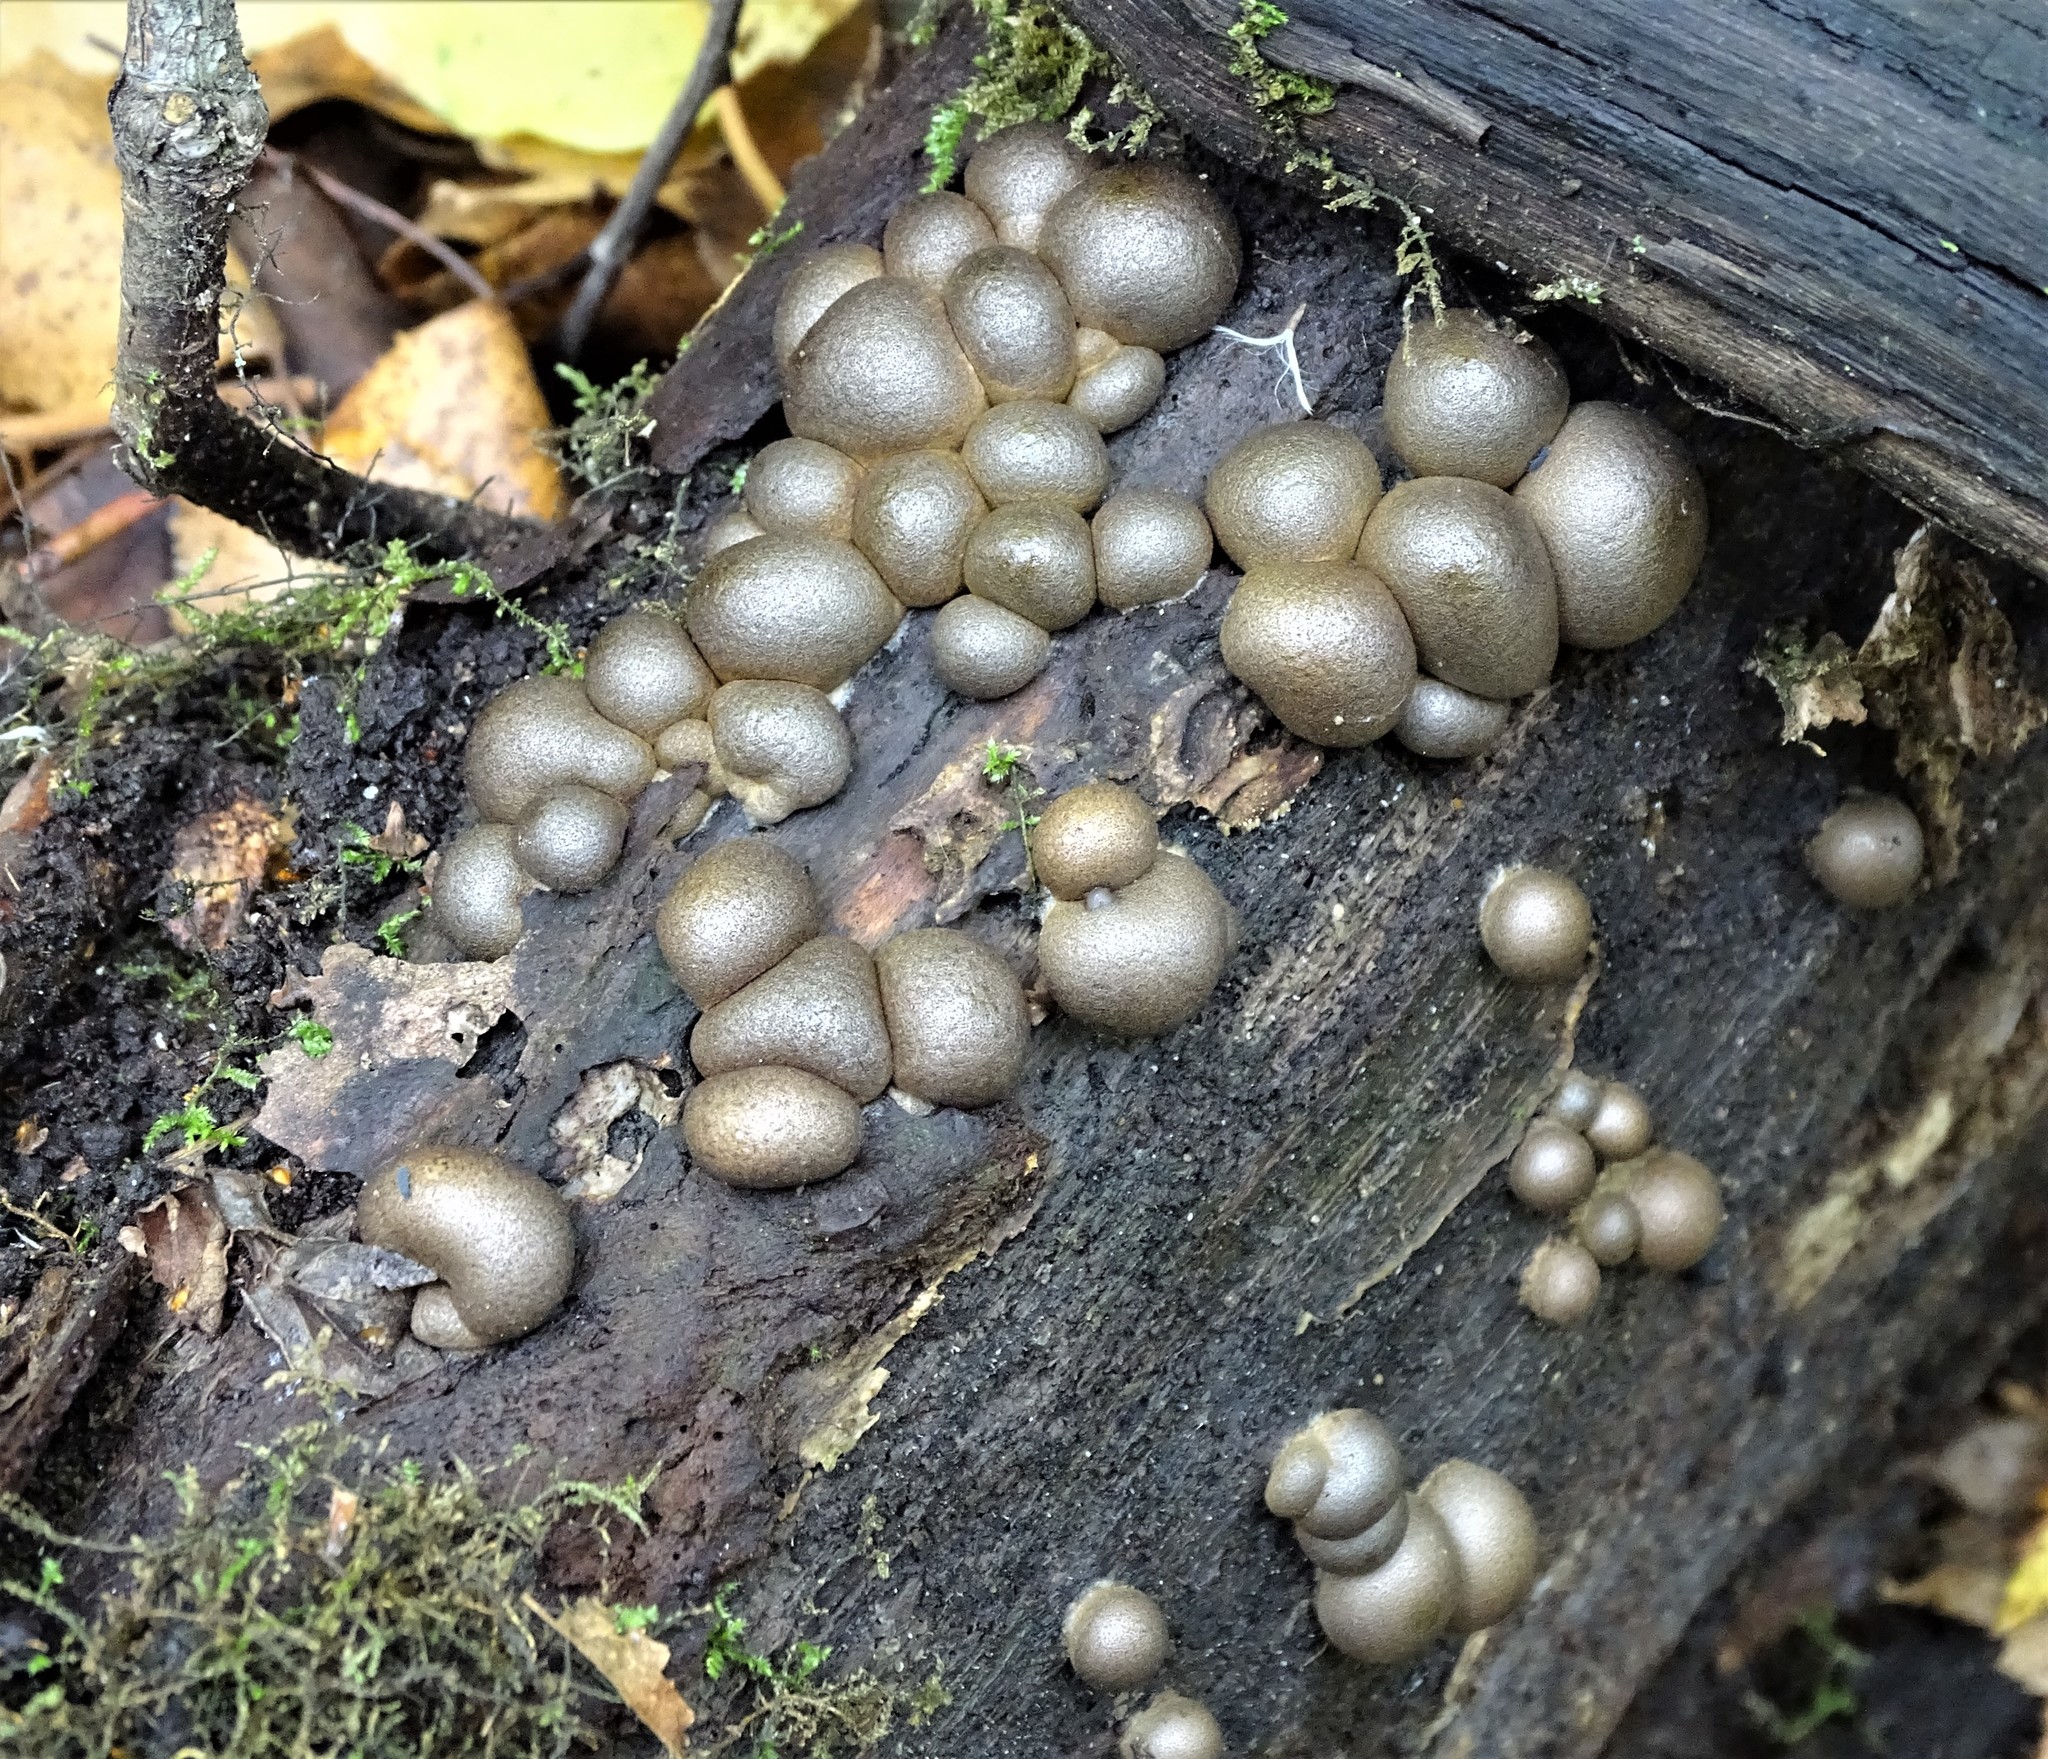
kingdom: Protozoa
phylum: Mycetozoa
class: Myxomycetes
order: Cribrariales
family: Tubiferaceae
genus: Lycogala
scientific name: Lycogala epidendrum
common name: Wolf's milk
